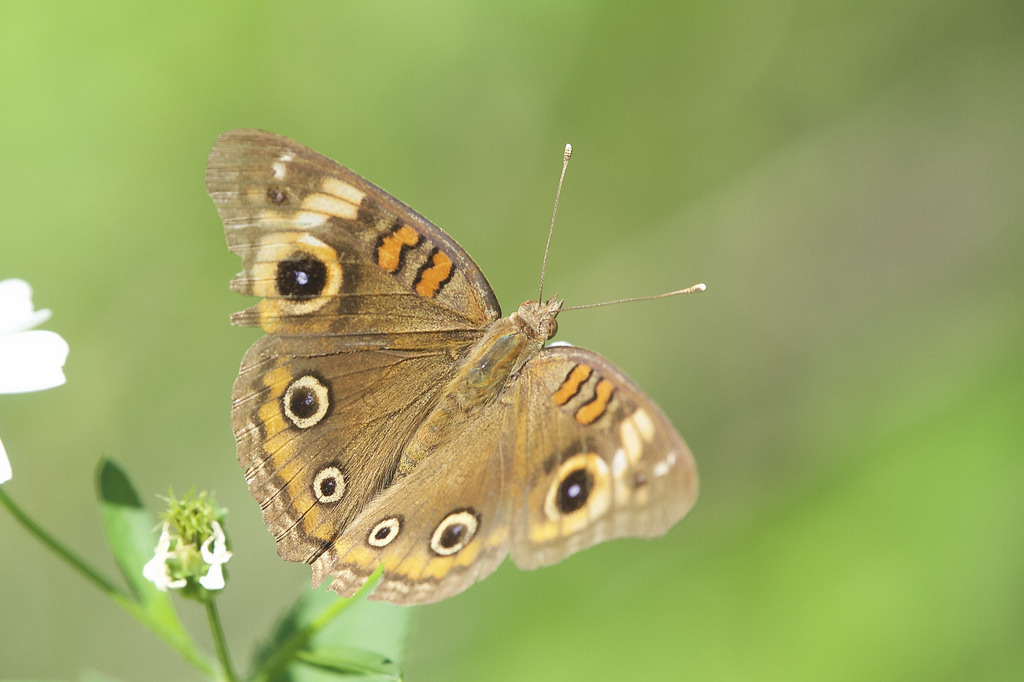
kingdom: Animalia
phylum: Arthropoda
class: Insecta
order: Lepidoptera
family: Nymphalidae
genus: Junonia
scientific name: Junonia neildi
